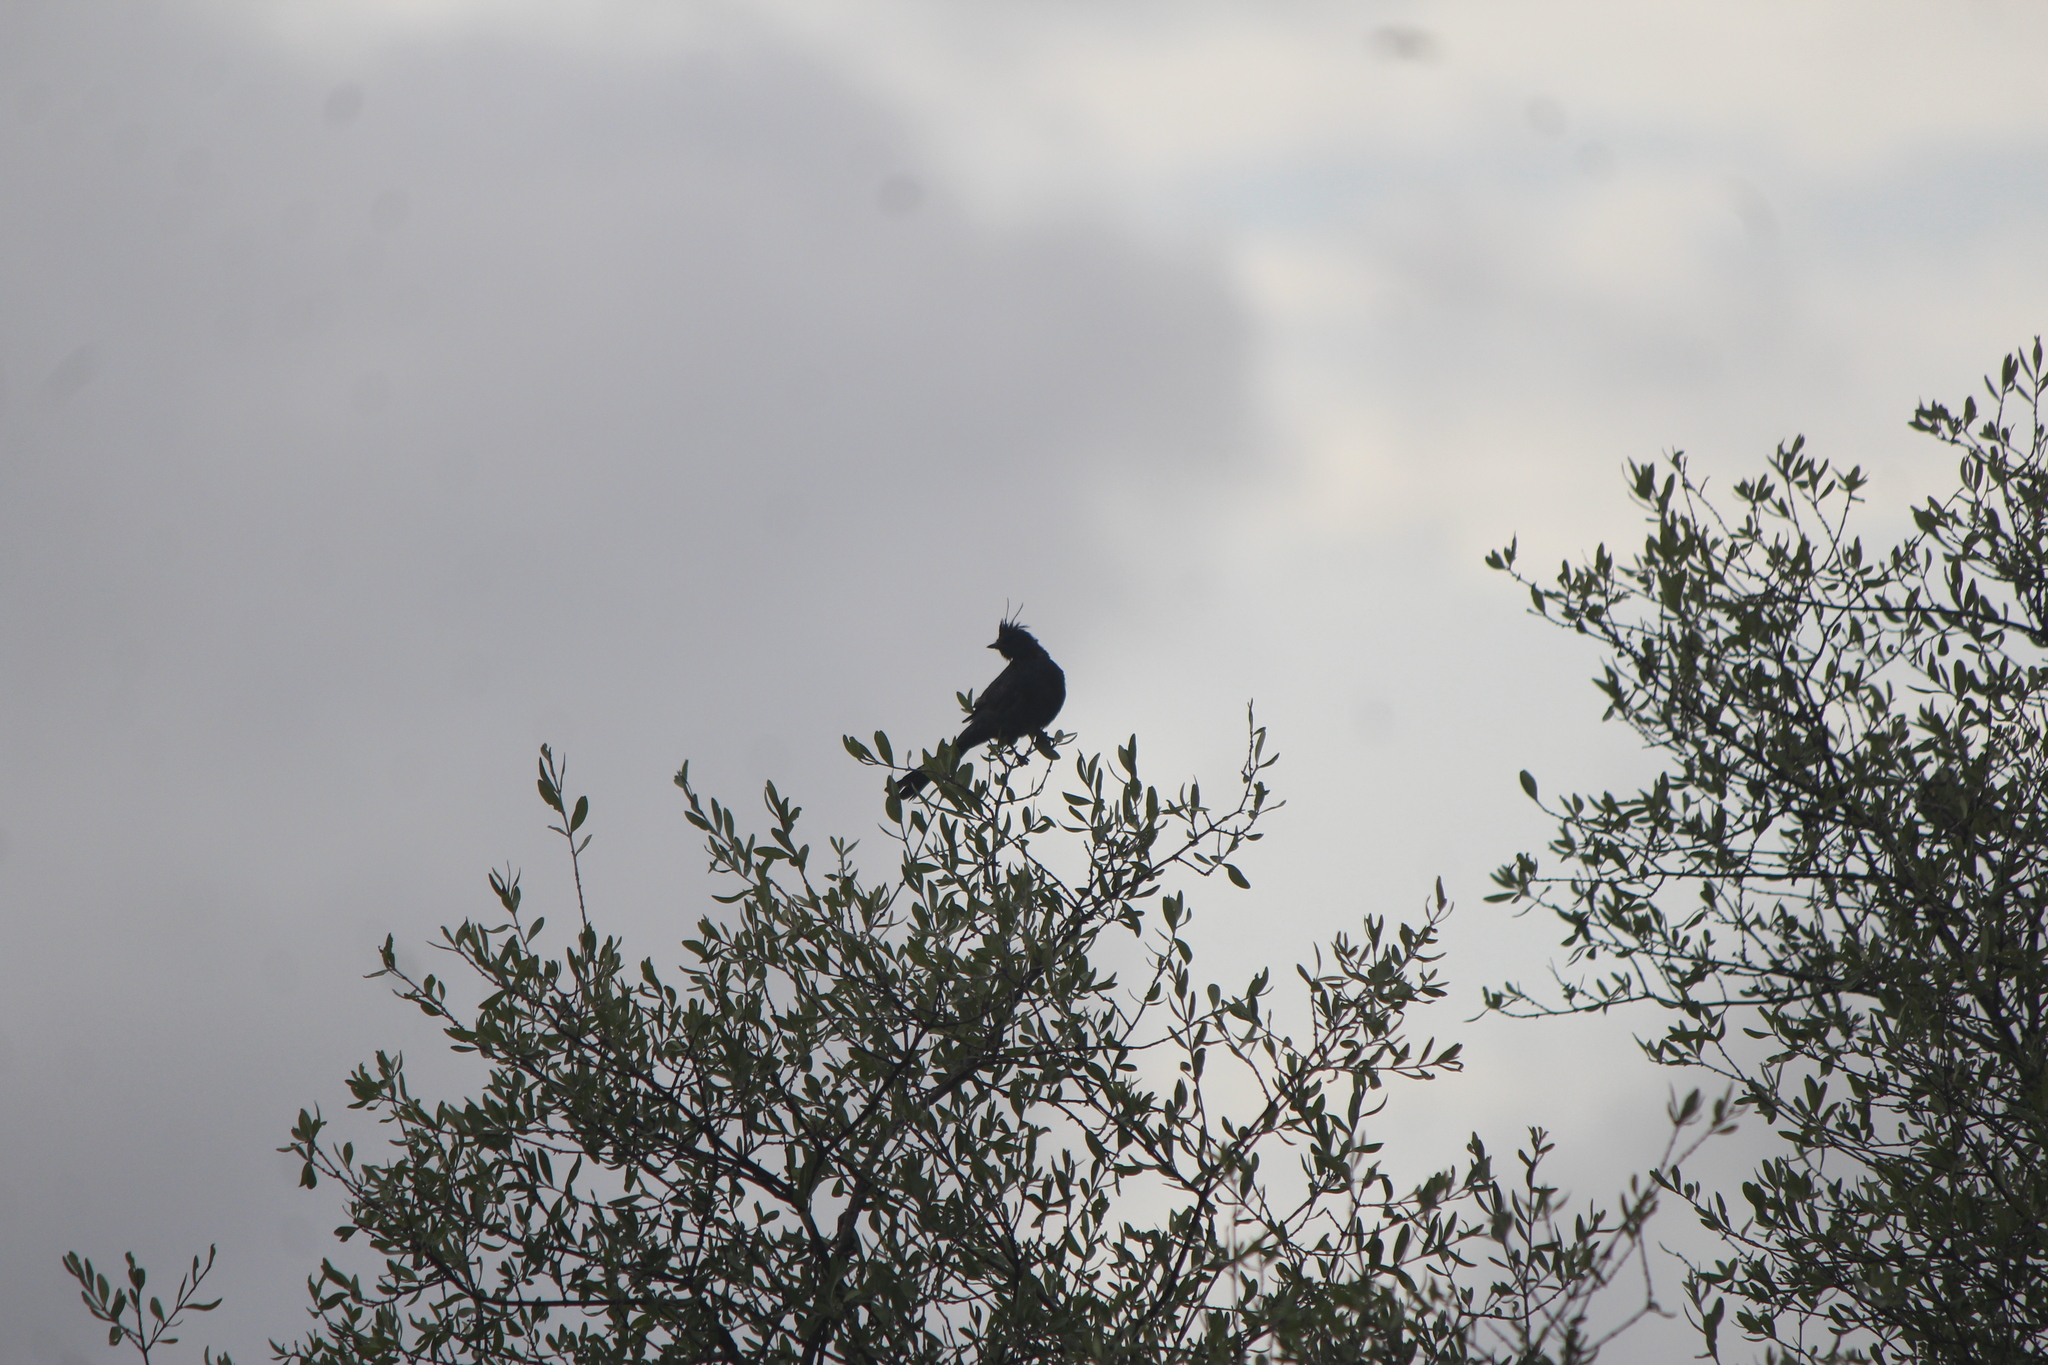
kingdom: Animalia
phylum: Chordata
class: Aves
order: Passeriformes
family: Ptilogonatidae
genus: Phainopepla
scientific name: Phainopepla nitens
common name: Phainopepla
